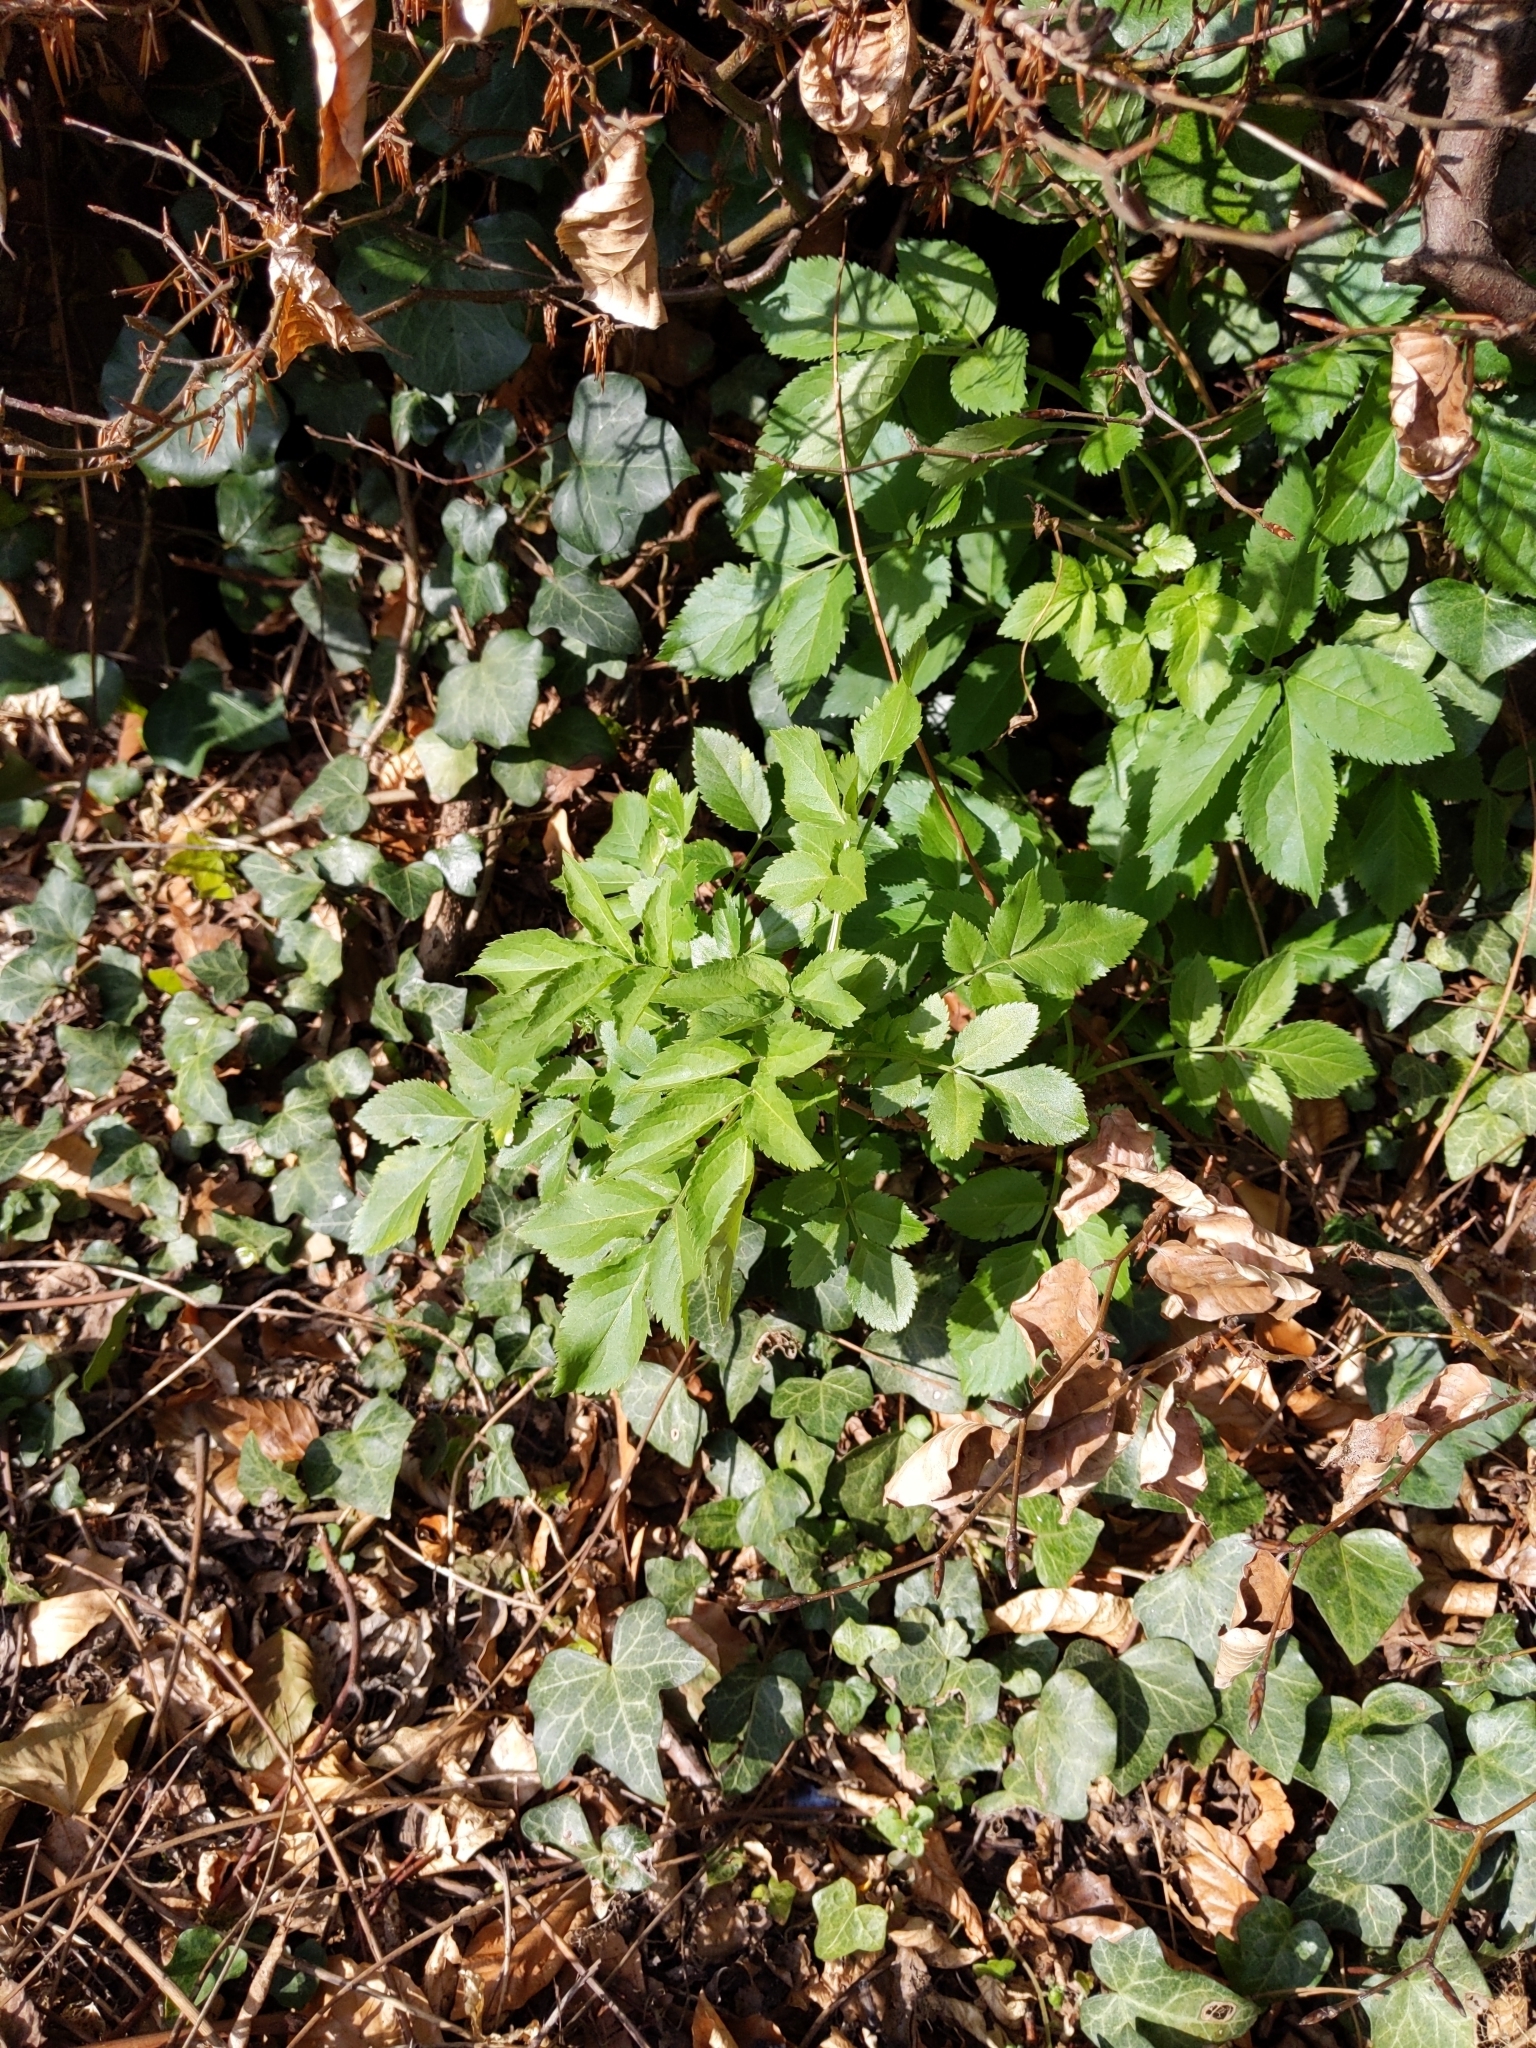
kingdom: Plantae
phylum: Tracheophyta
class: Magnoliopsida
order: Dipsacales
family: Viburnaceae
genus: Sambucus
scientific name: Sambucus nigra
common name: Elder
